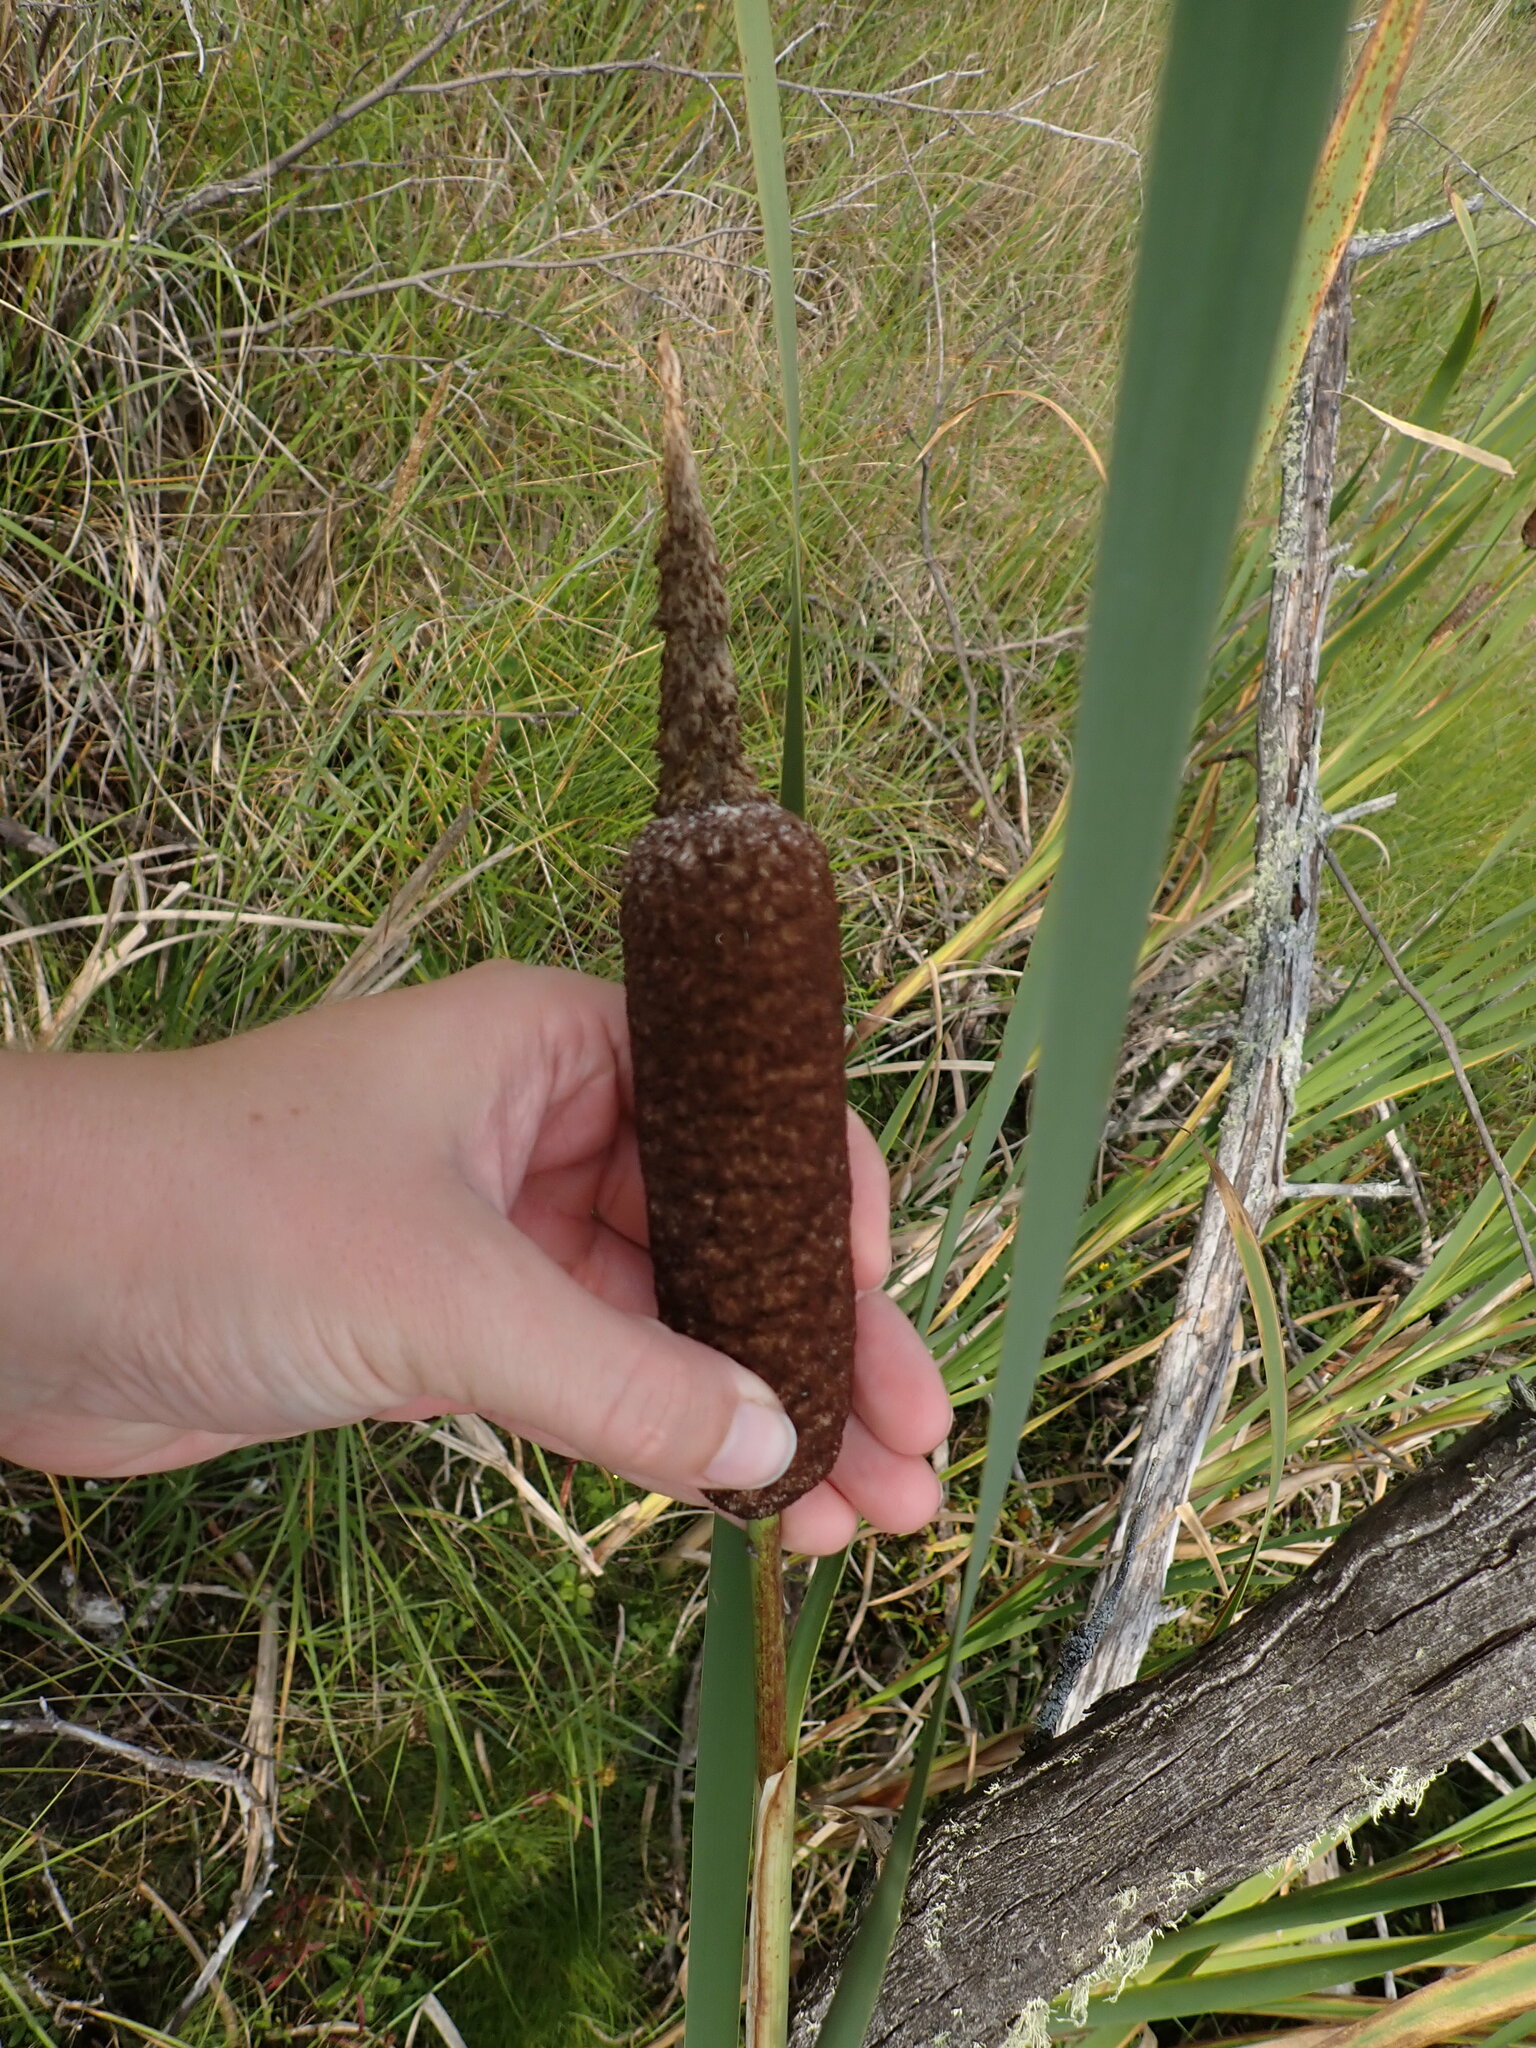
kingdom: Plantae
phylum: Tracheophyta
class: Liliopsida
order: Poales
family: Typhaceae
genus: Typha
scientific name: Typha latifolia
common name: Broadleaf cattail
